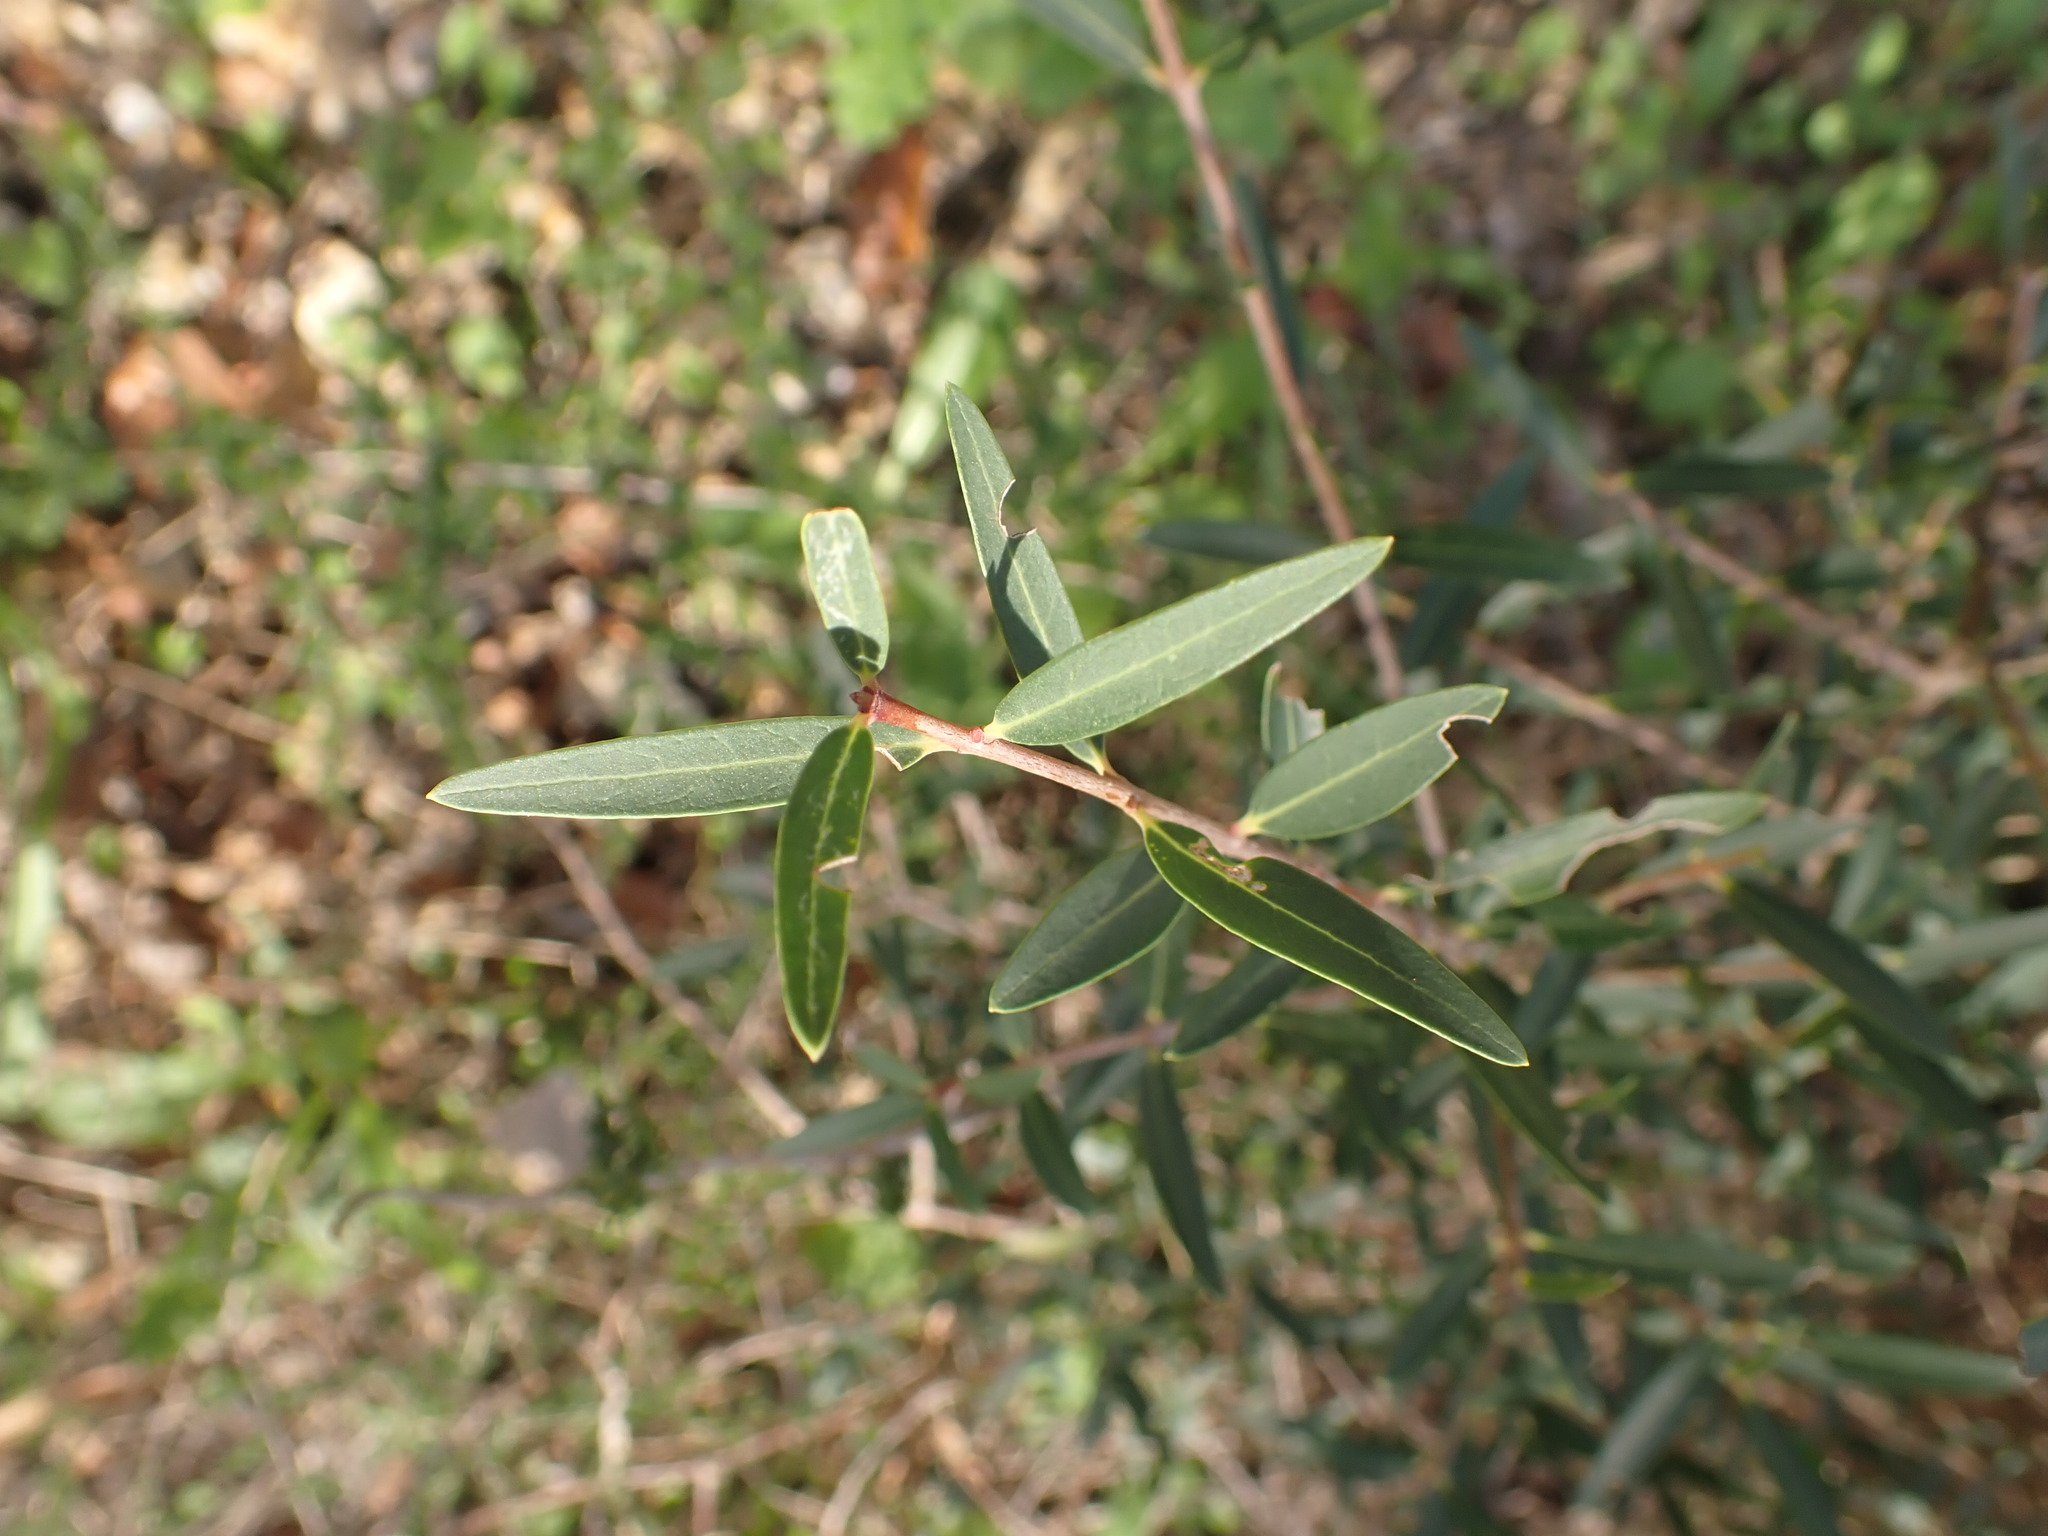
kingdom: Plantae
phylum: Tracheophyta
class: Magnoliopsida
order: Lamiales
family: Oleaceae
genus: Phillyrea
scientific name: Phillyrea angustifolia
